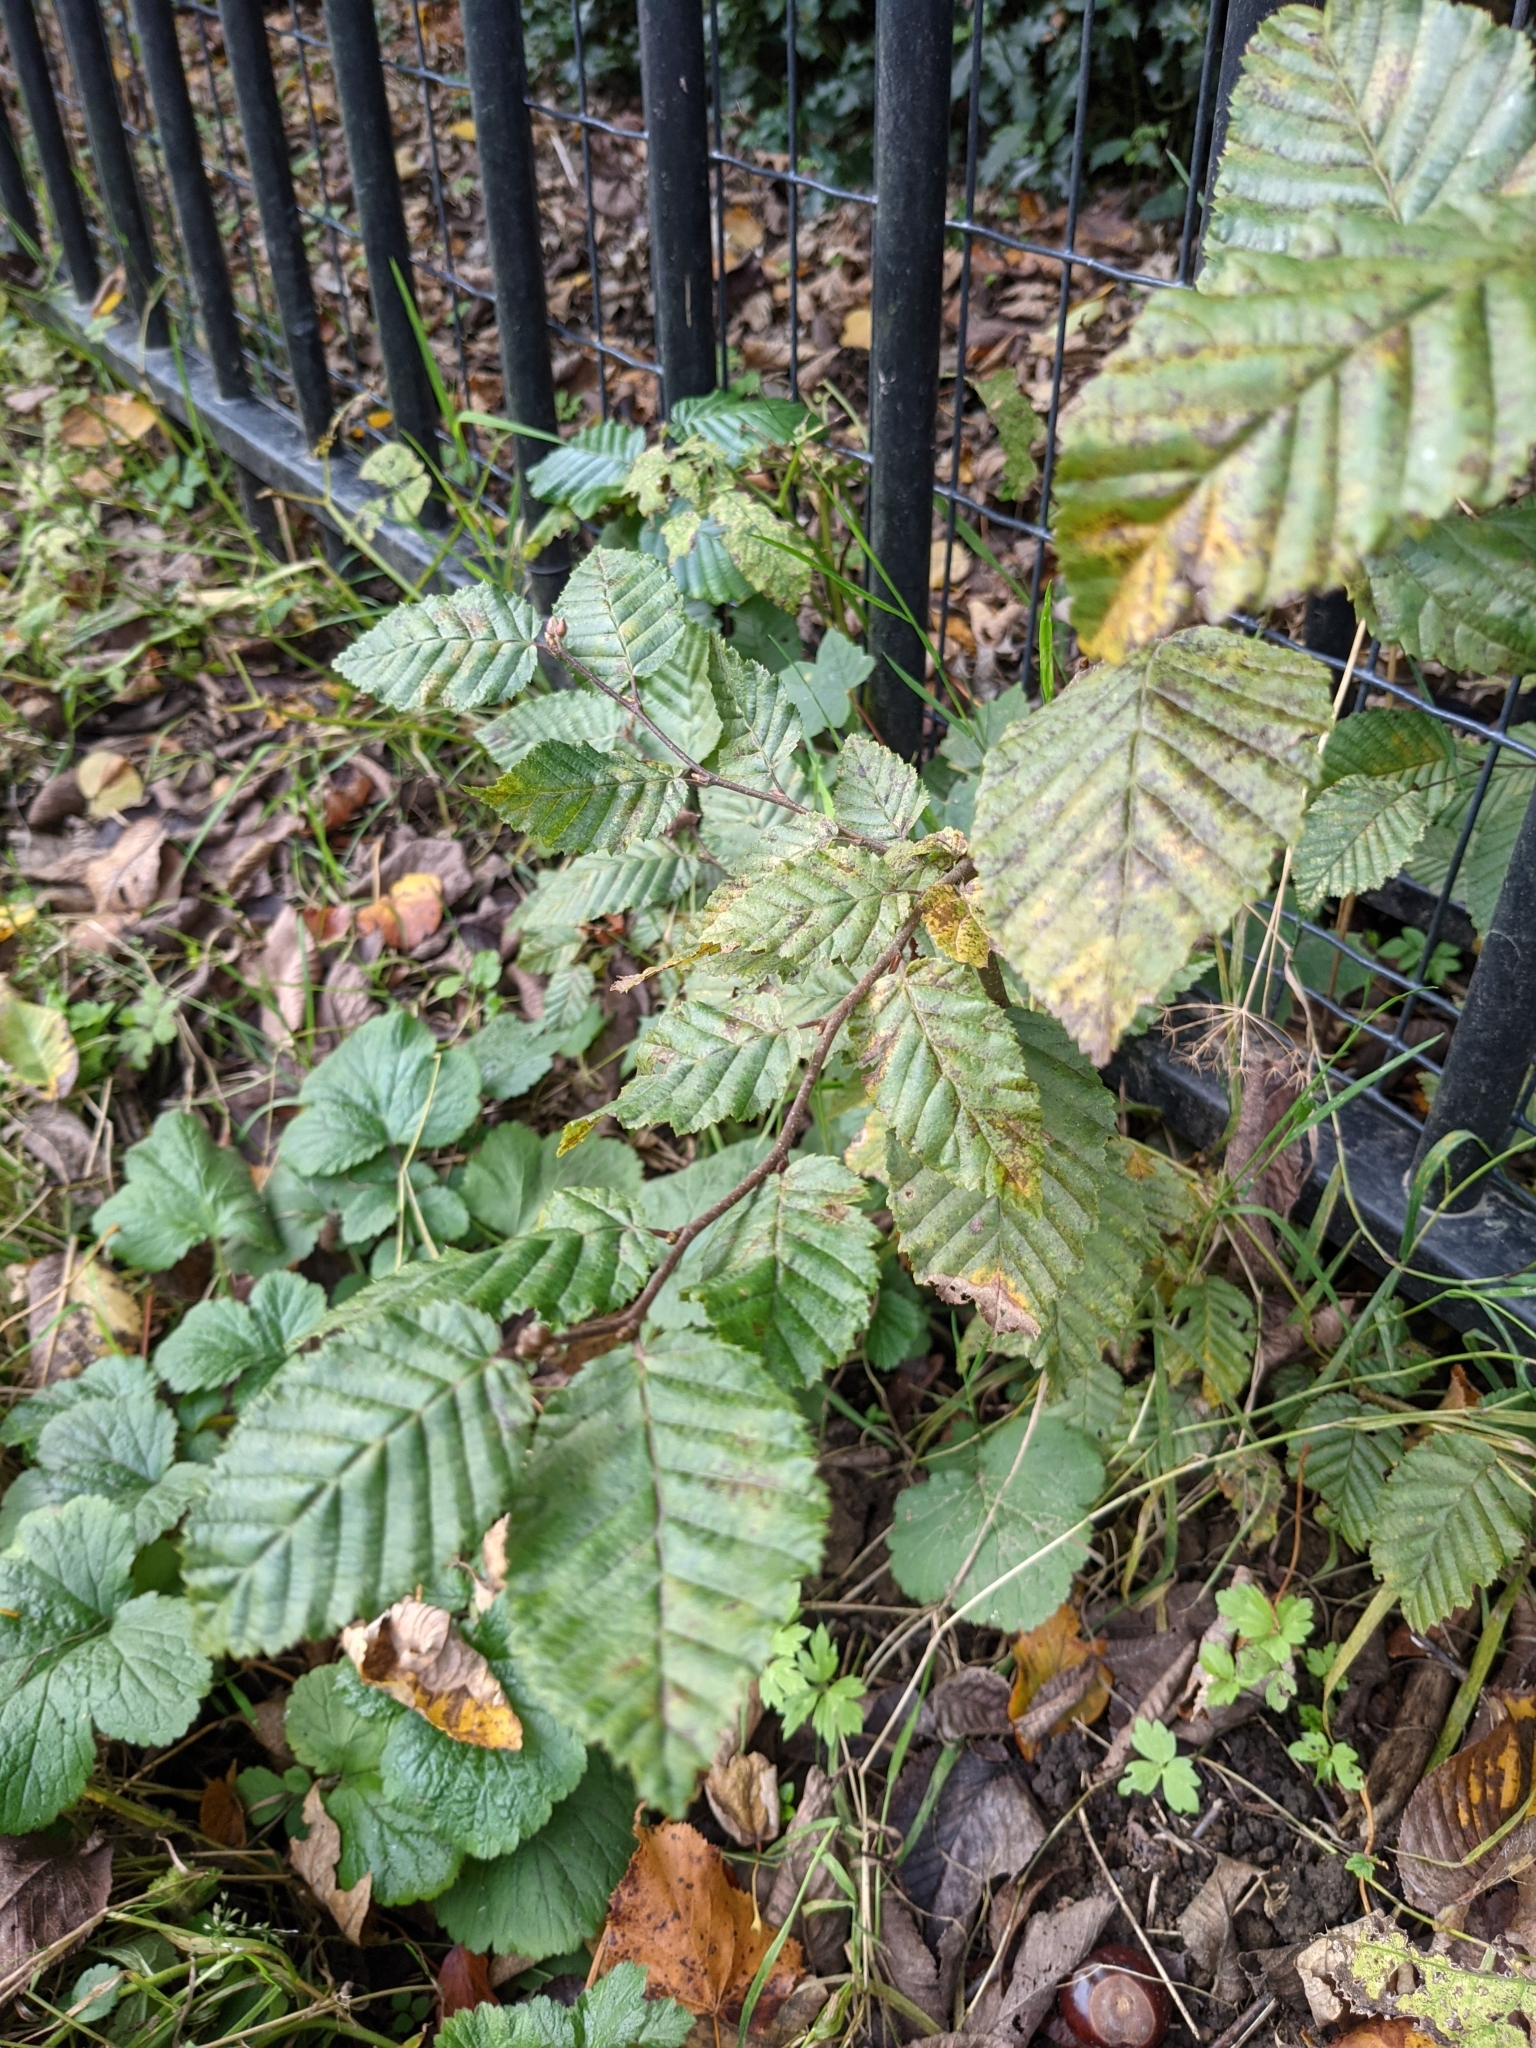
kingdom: Plantae
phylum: Tracheophyta
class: Magnoliopsida
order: Fagales
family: Betulaceae
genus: Carpinus
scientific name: Carpinus betulus
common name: Hornbeam
